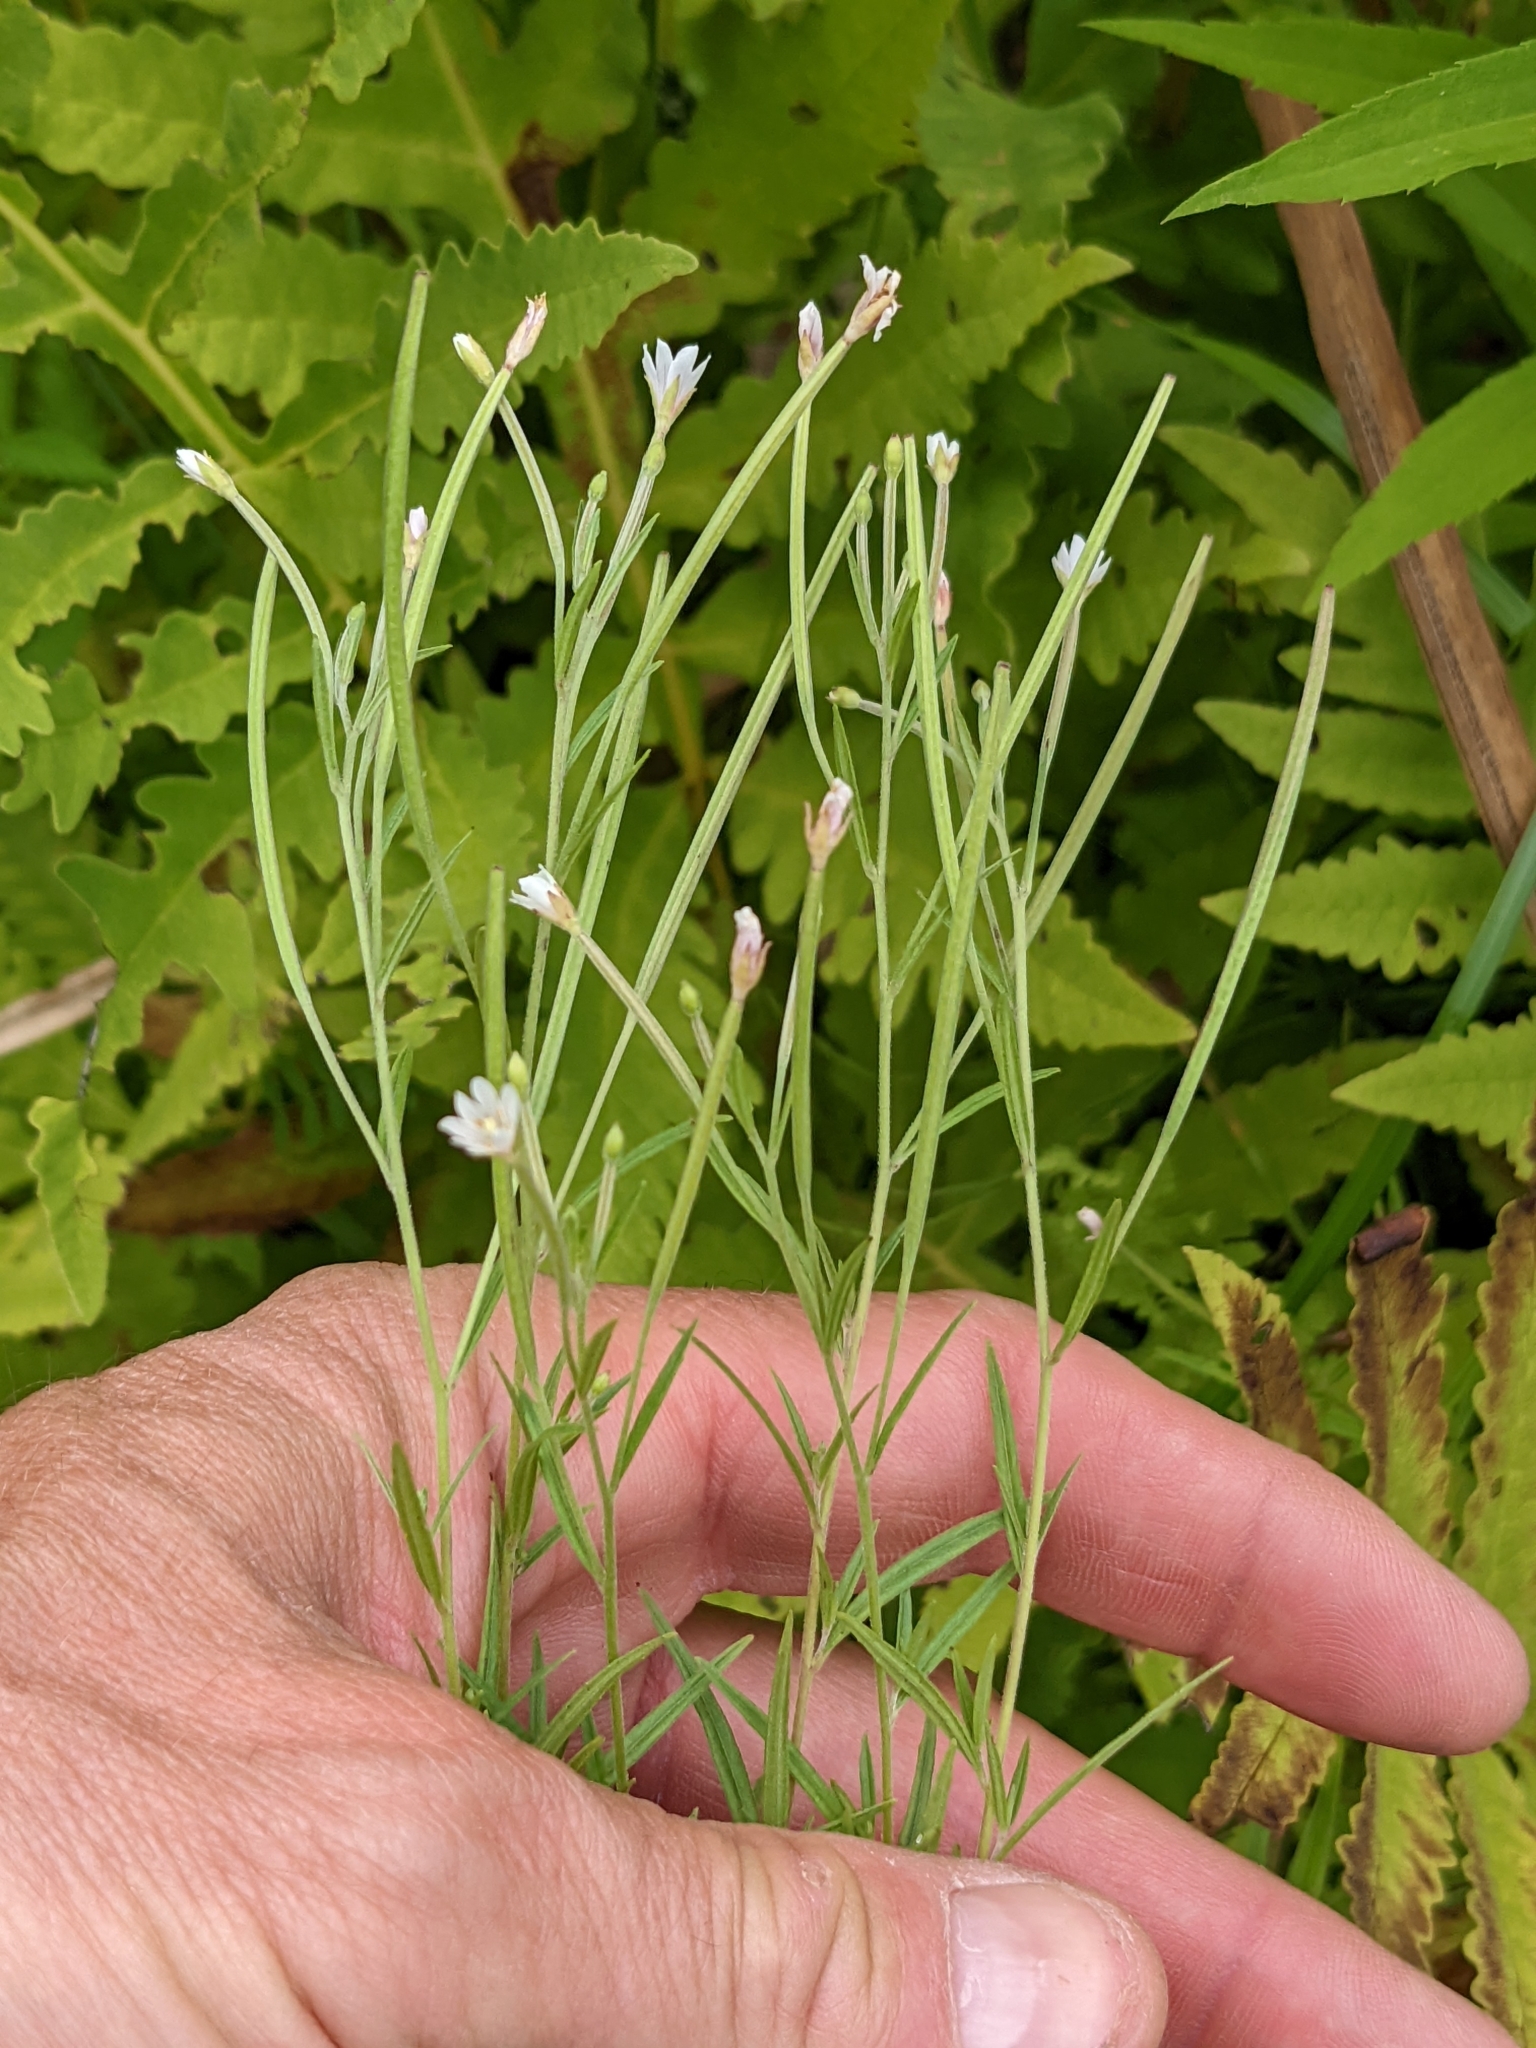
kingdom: Plantae
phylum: Tracheophyta
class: Magnoliopsida
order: Myrtales
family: Onagraceae
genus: Epilobium
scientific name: Epilobium leptophyllum
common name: Bog willowherb
